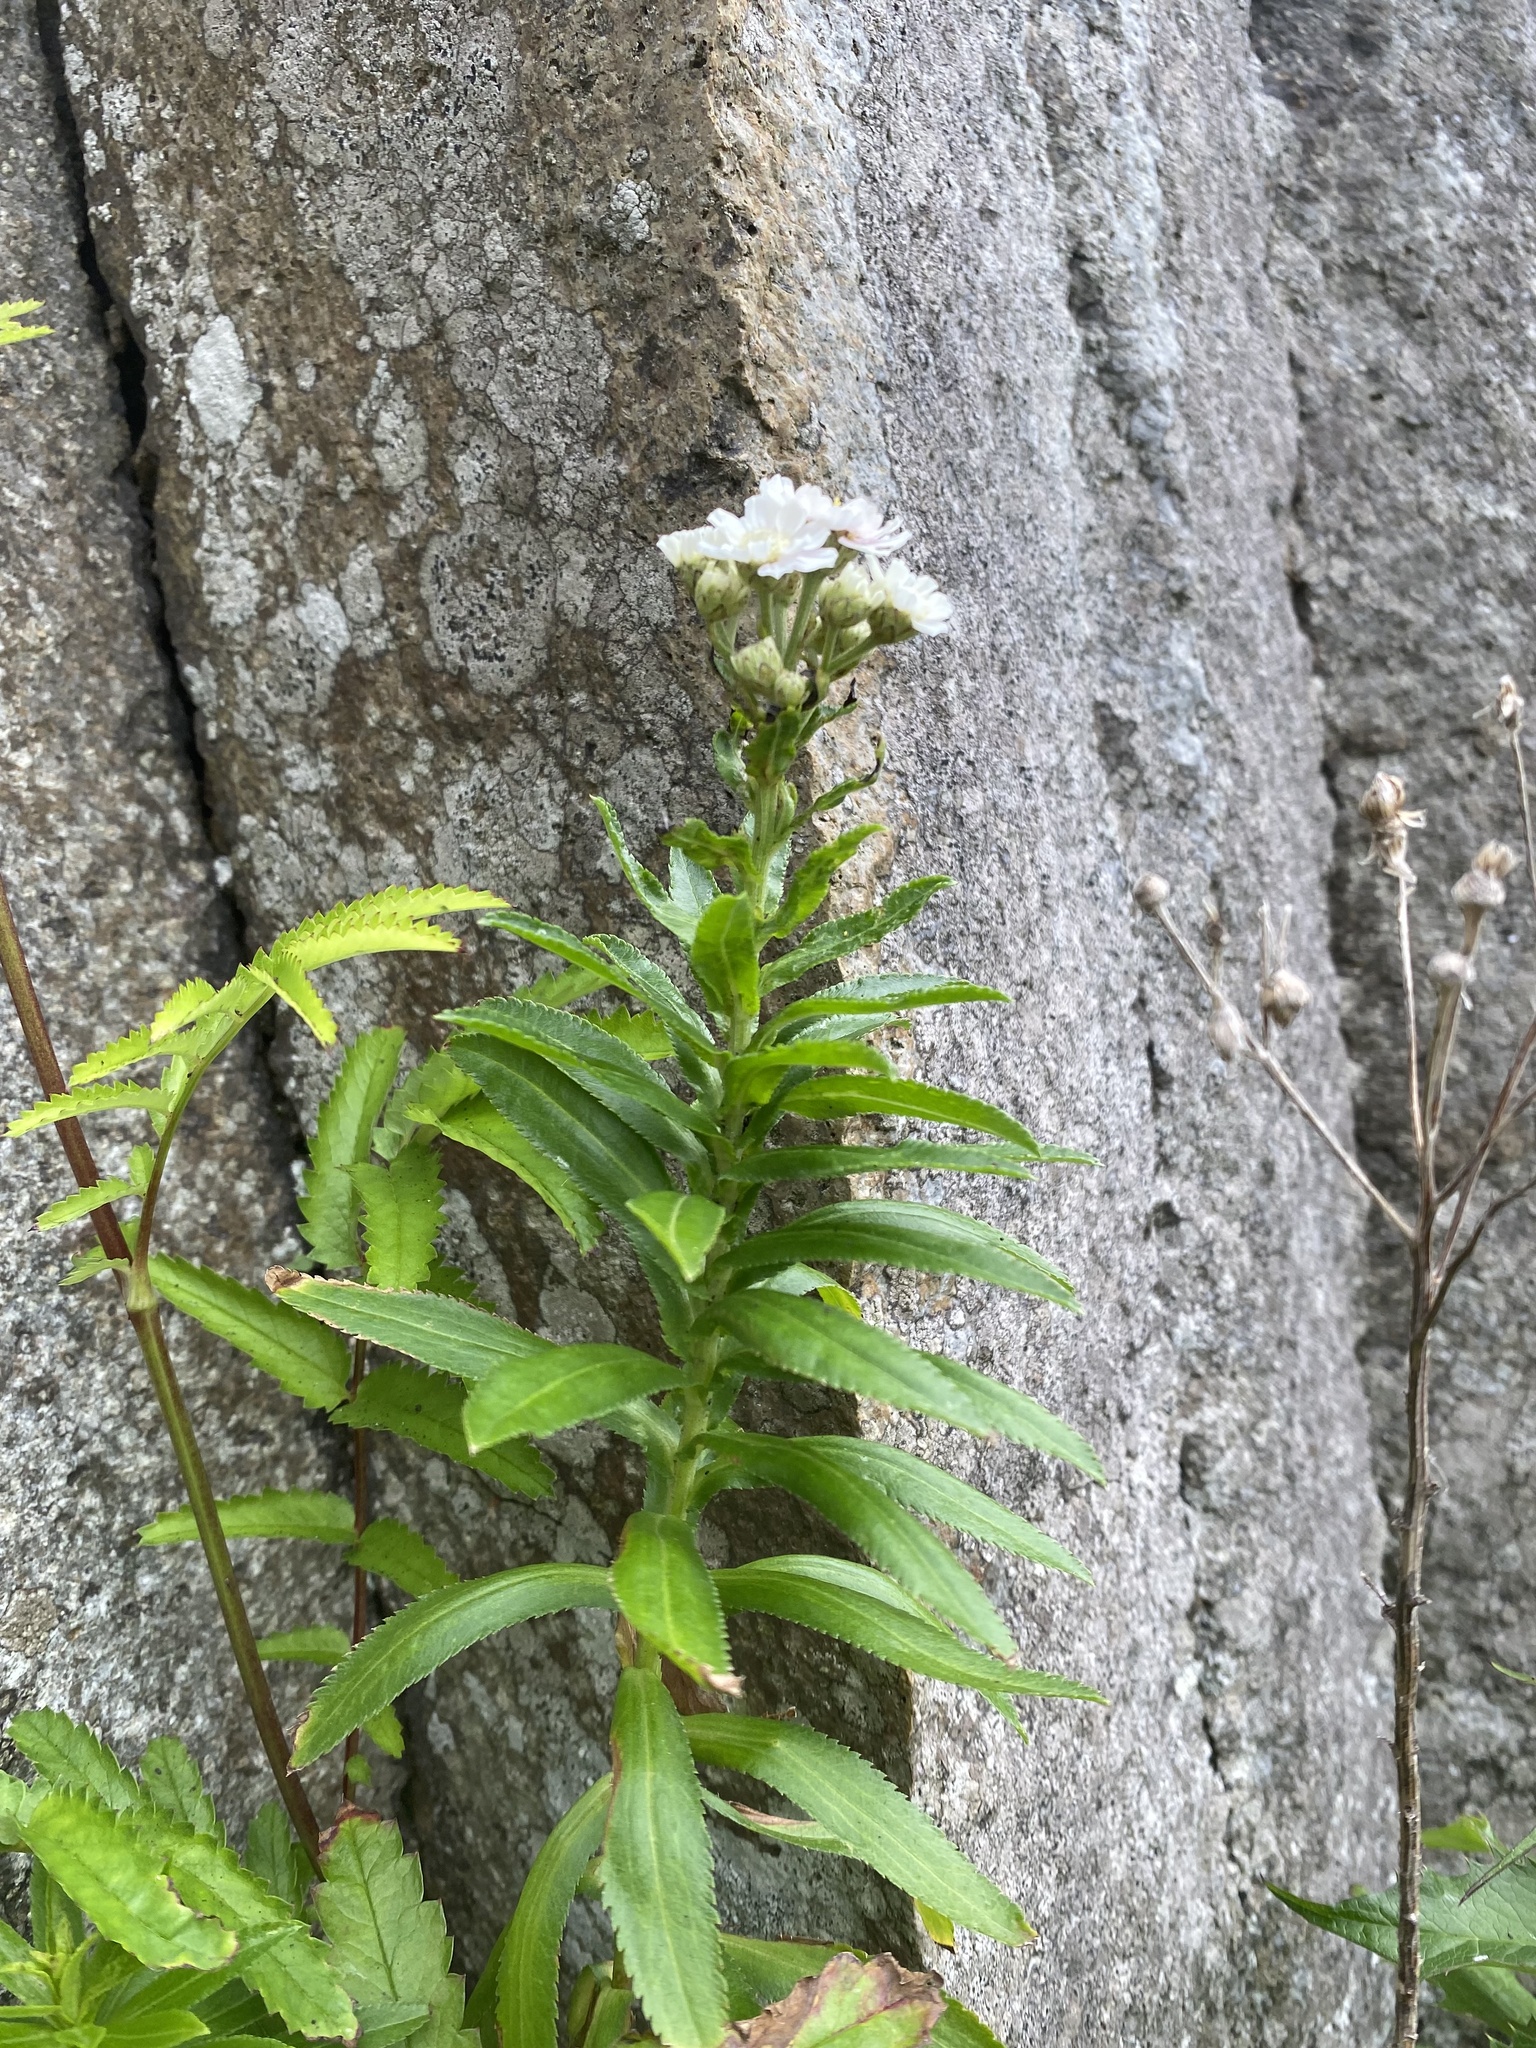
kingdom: Plantae
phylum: Tracheophyta
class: Magnoliopsida
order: Asterales
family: Asteraceae
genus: Achillea
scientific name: Achillea ptarmica
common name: Sneezeweed
